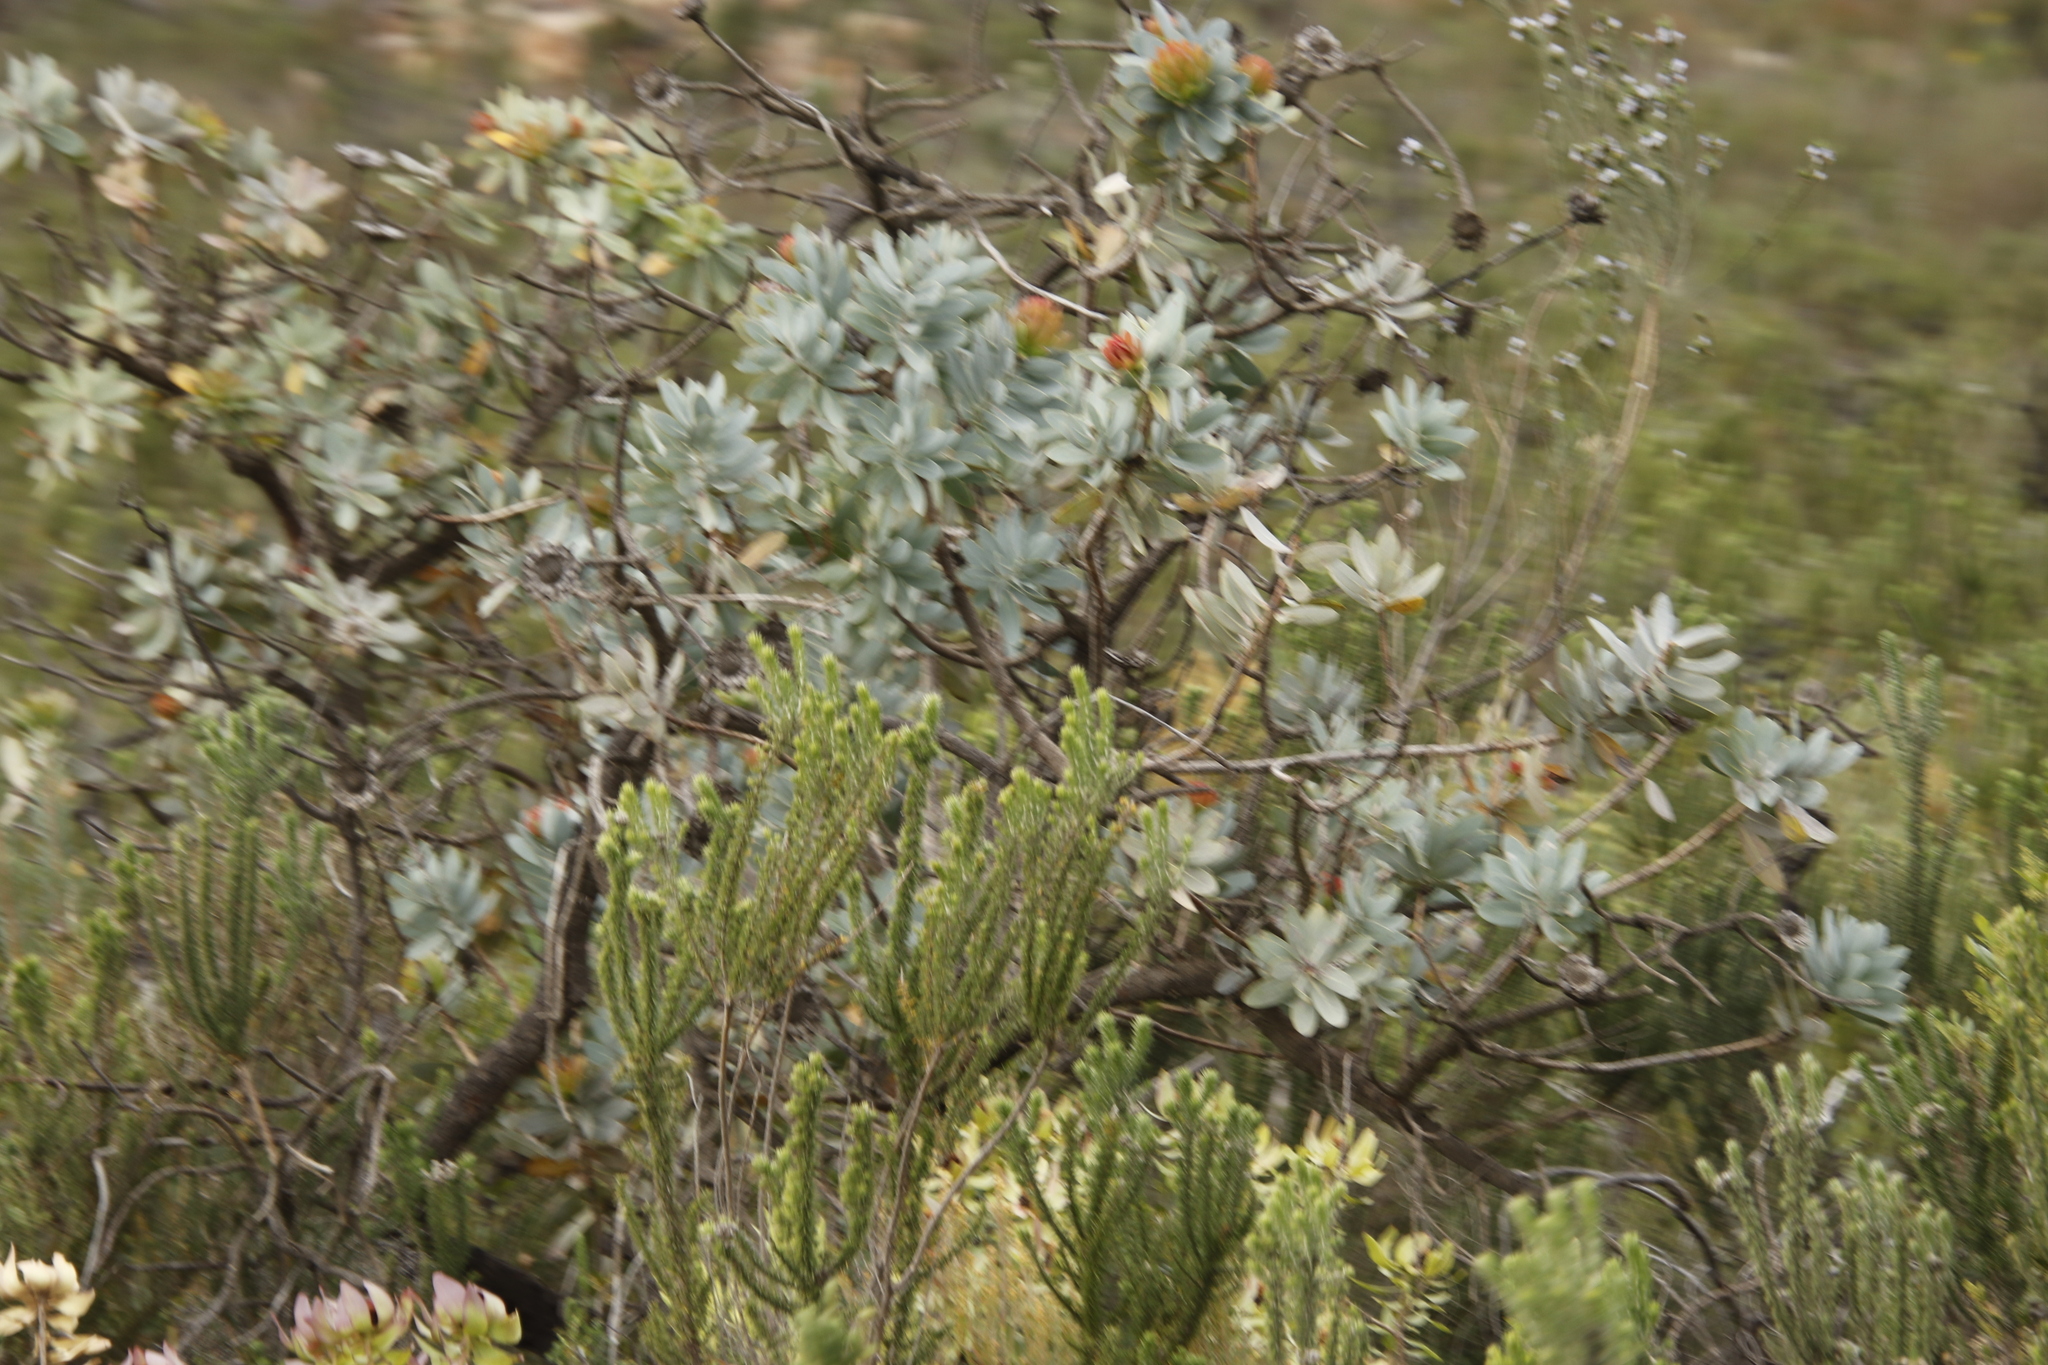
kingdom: Plantae
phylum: Tracheophyta
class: Magnoliopsida
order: Proteales
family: Proteaceae
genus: Protea
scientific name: Protea nitida
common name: Tree protea
